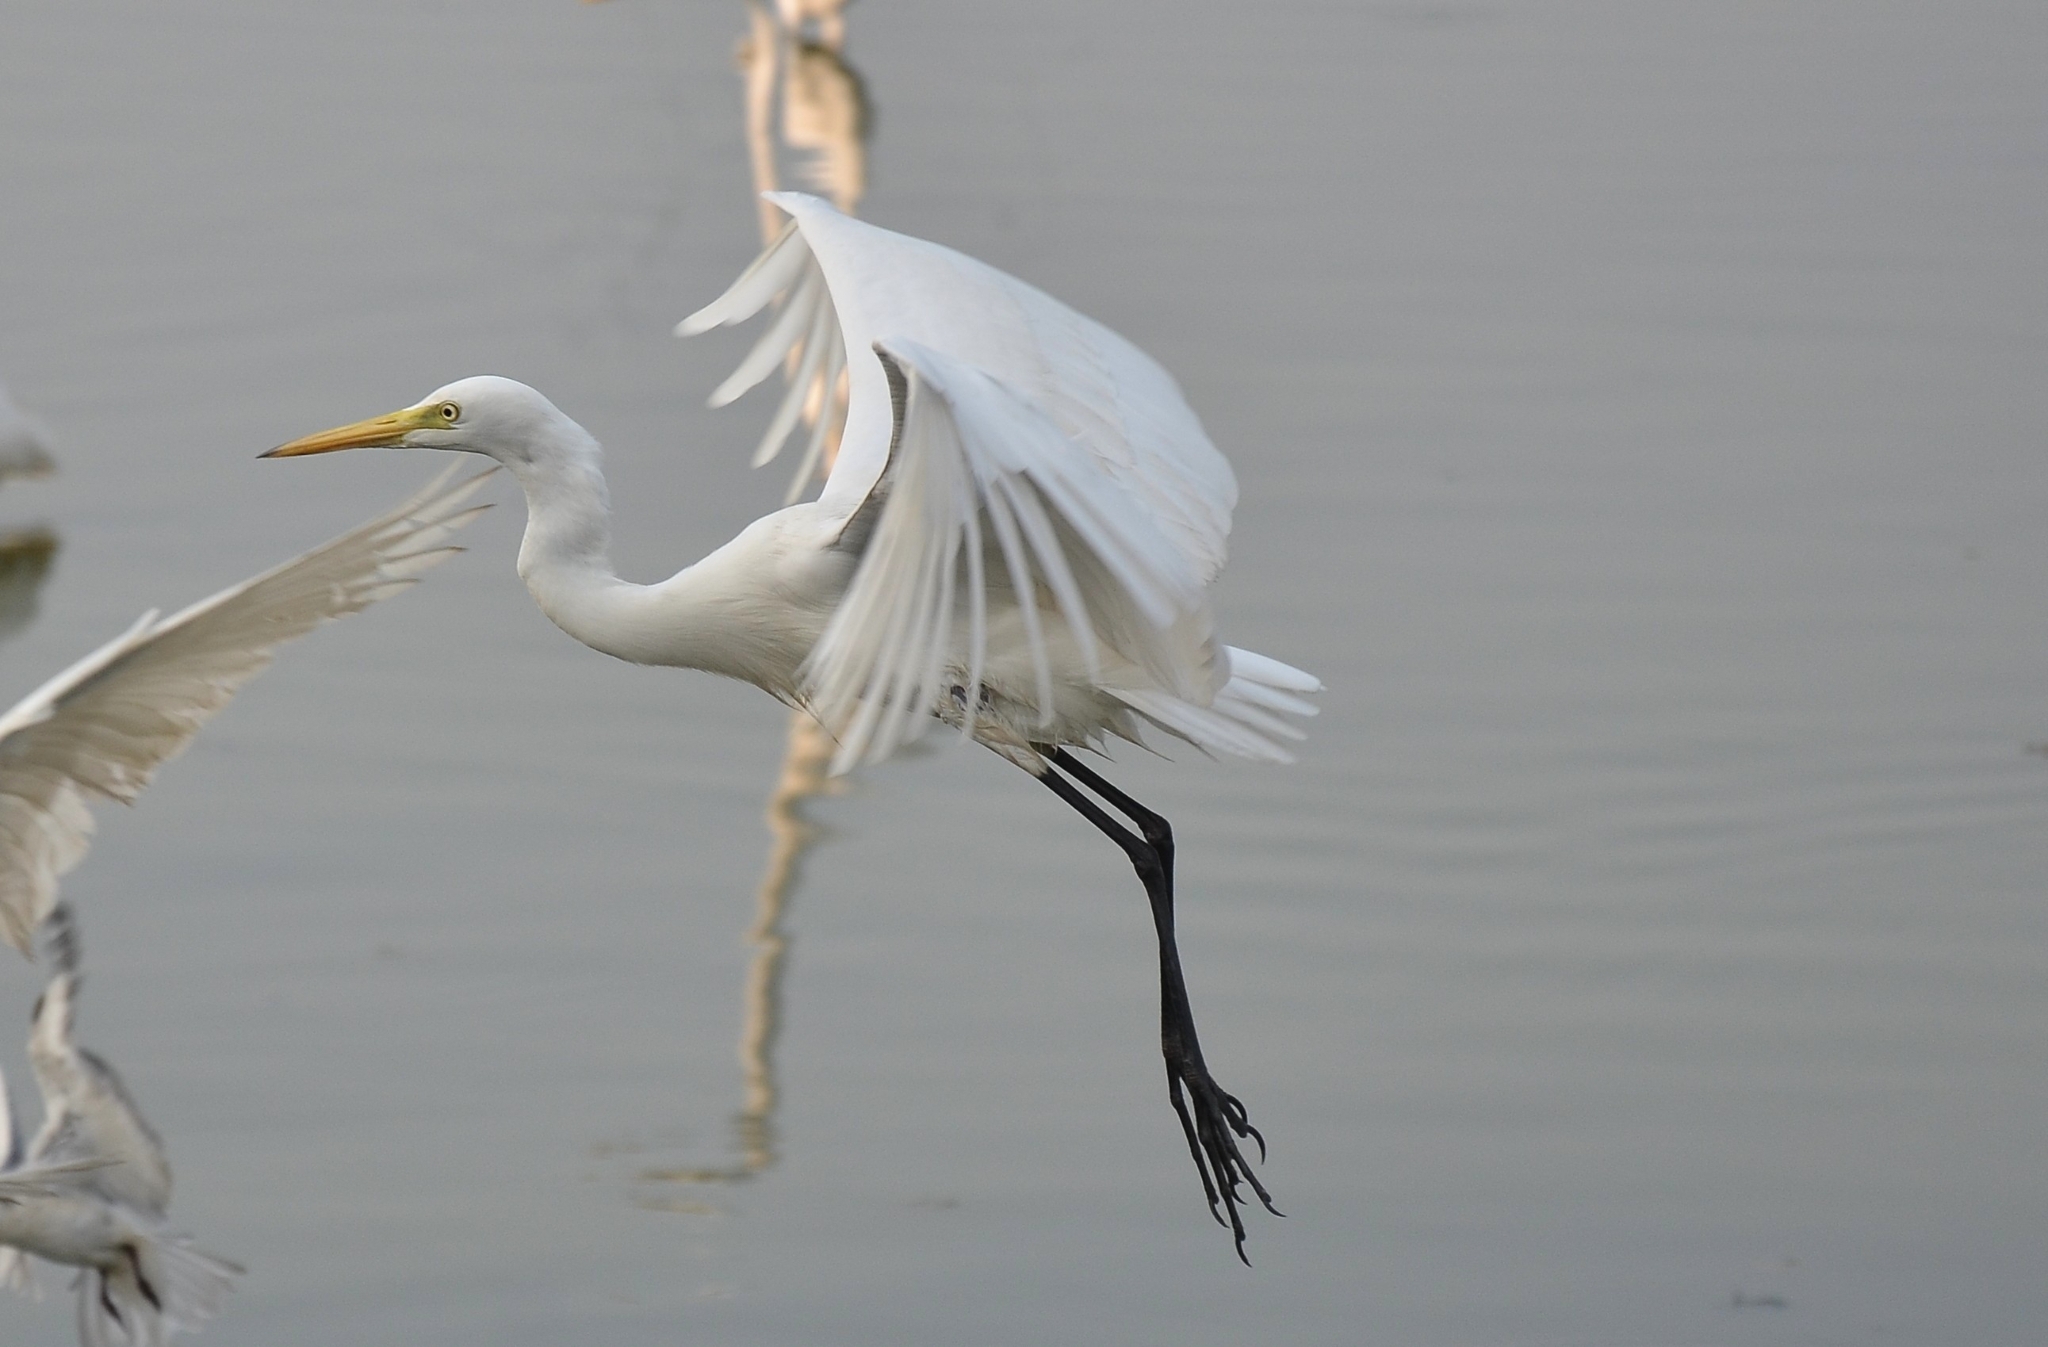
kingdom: Animalia
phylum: Chordata
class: Aves
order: Pelecaniformes
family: Ardeidae
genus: Egretta
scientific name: Egretta intermedia
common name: Intermediate egret
